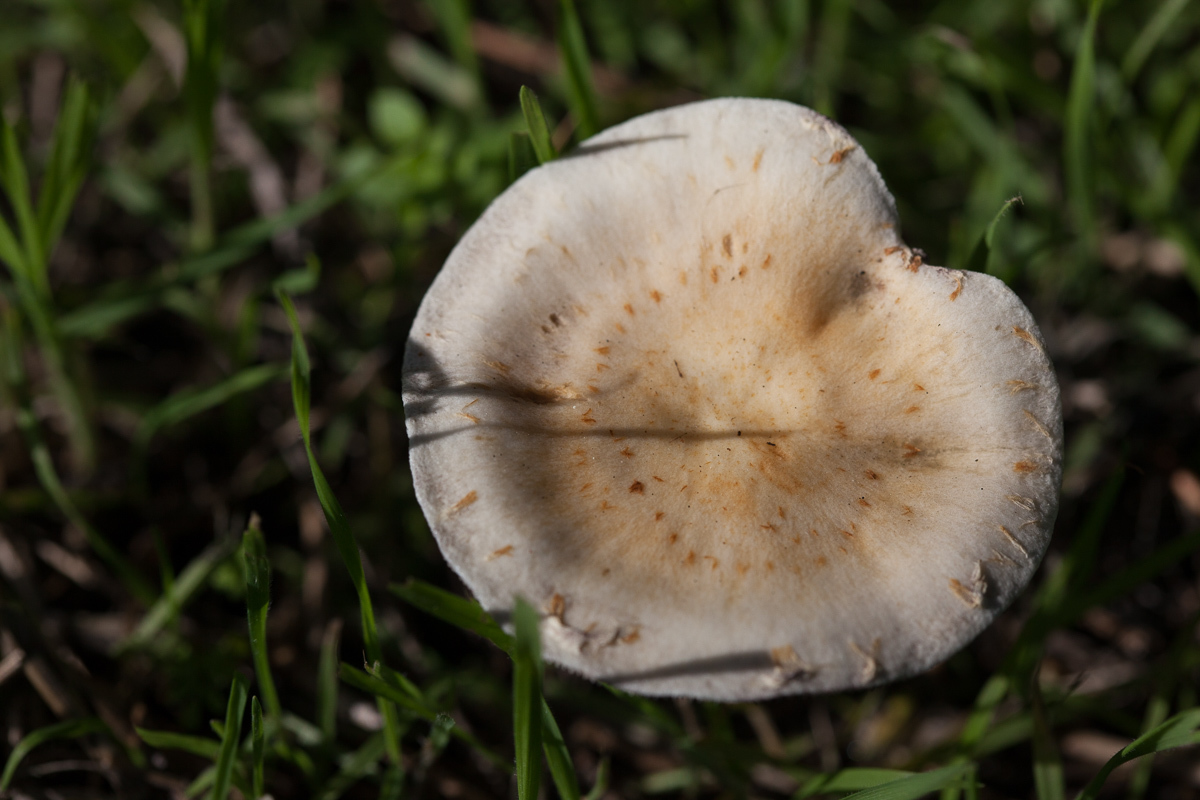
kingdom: Fungi
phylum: Basidiomycota
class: Agaricomycetes
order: Agaricales
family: Strophariaceae
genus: Leratiomyces
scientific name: Leratiomyces percevalii
